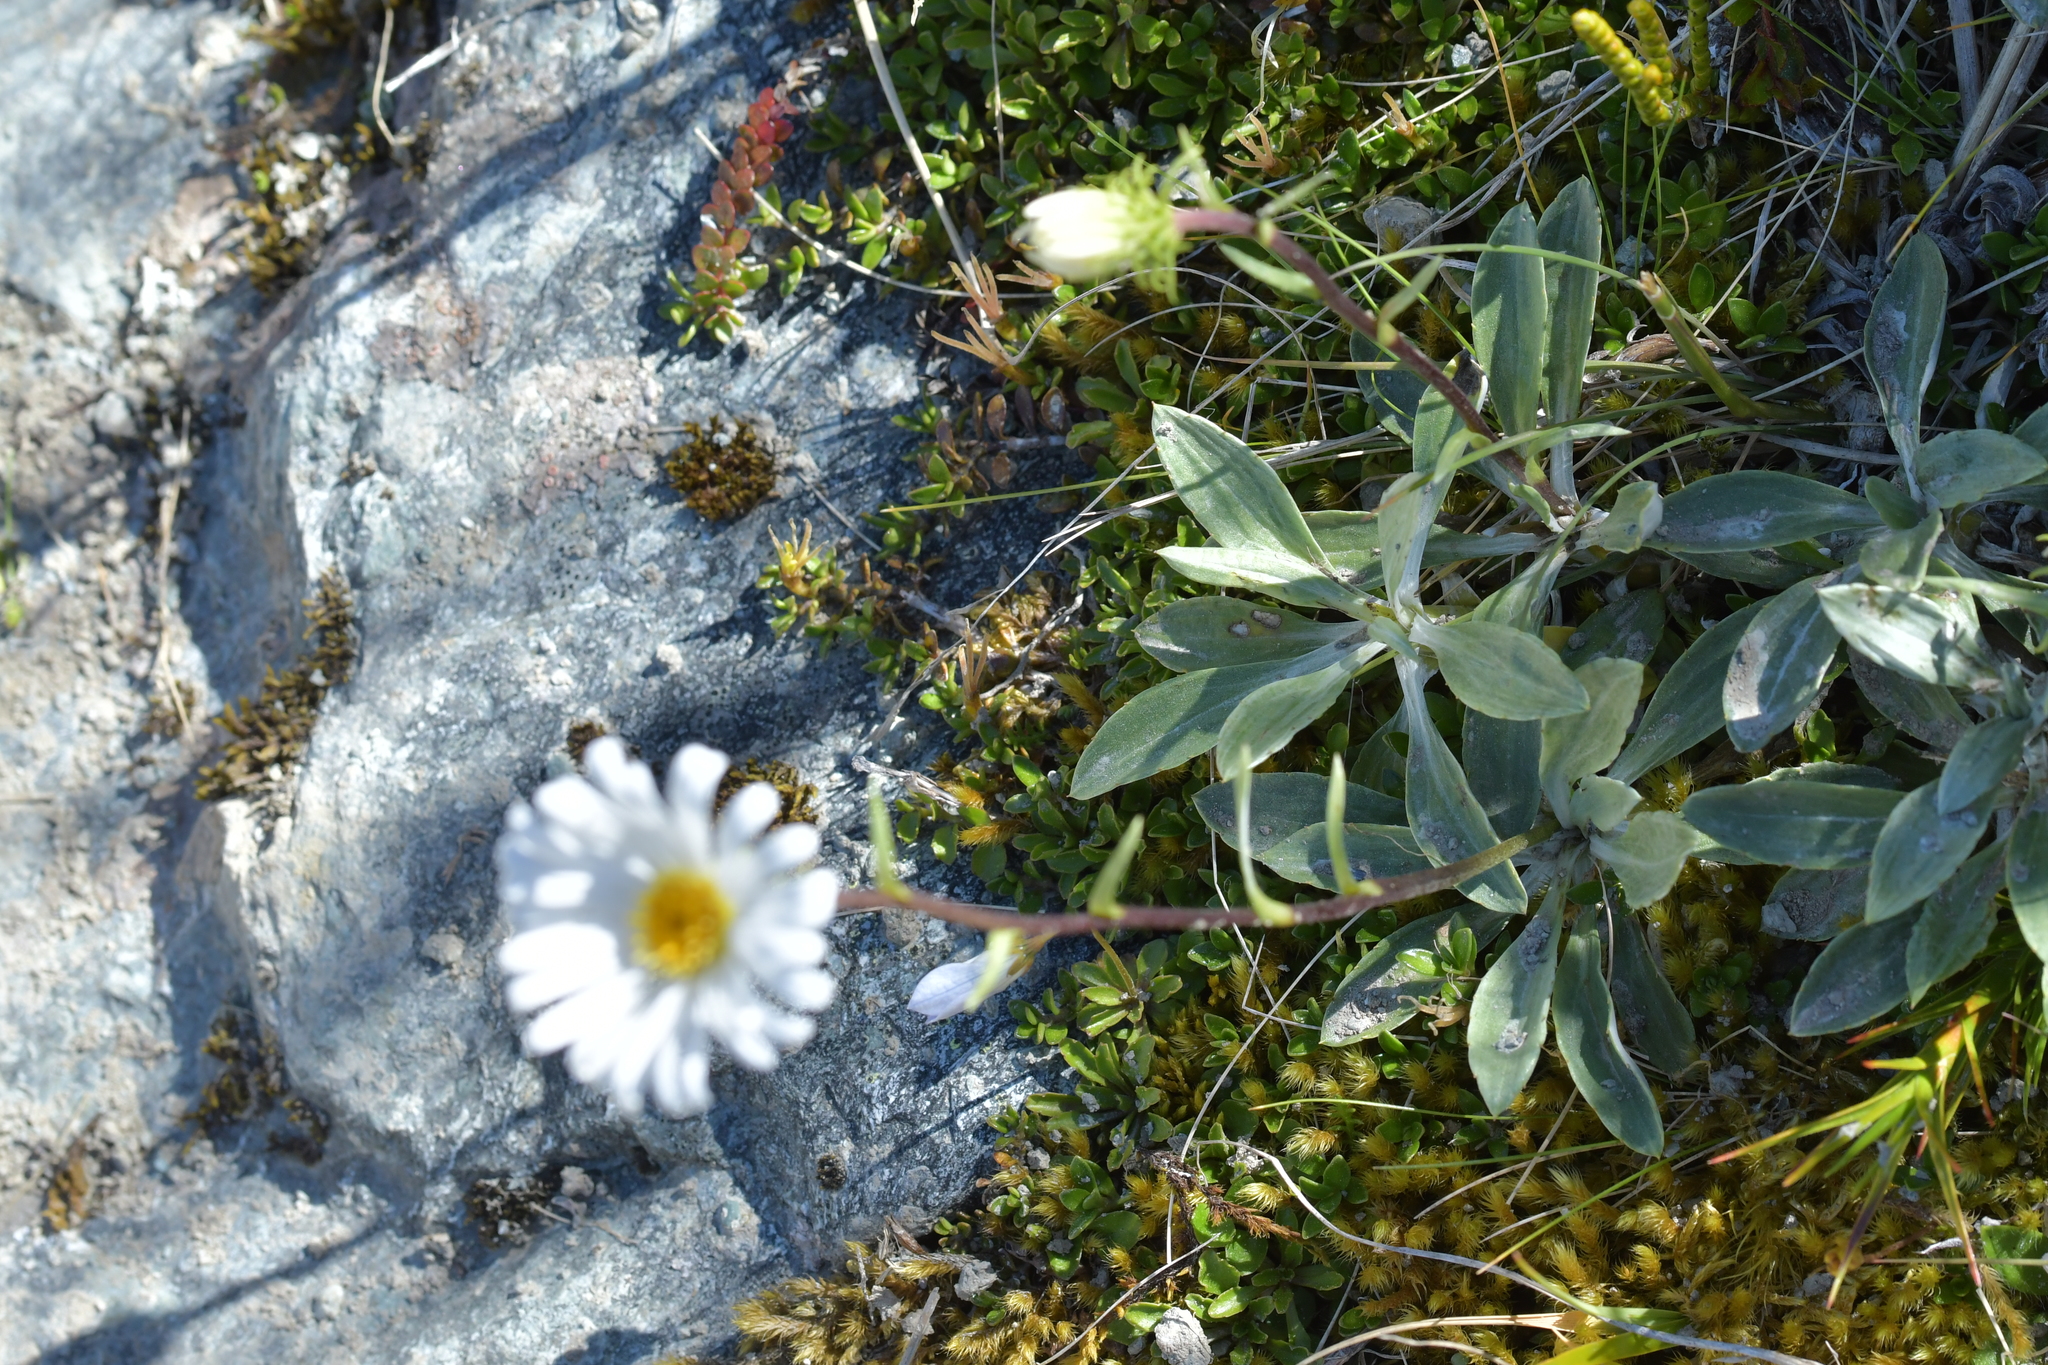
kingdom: Plantae
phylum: Tracheophyta
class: Magnoliopsida
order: Asterales
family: Asteraceae
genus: Celmisia
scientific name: Celmisia durietzii
